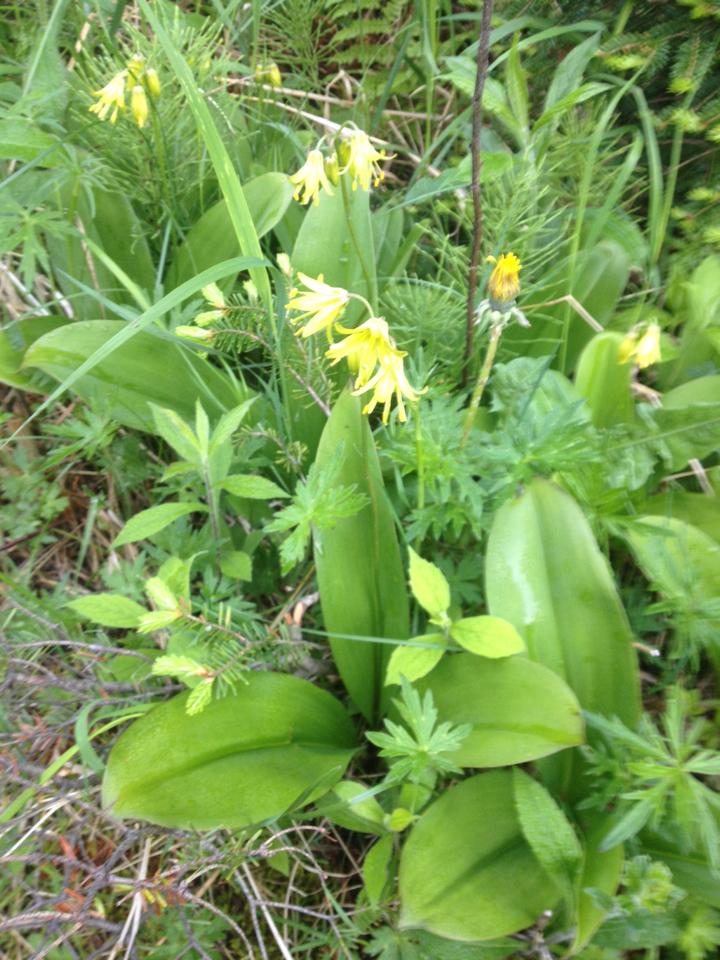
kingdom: Plantae
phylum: Tracheophyta
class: Liliopsida
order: Liliales
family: Liliaceae
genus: Clintonia
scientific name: Clintonia borealis
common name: Yellow clintonia
